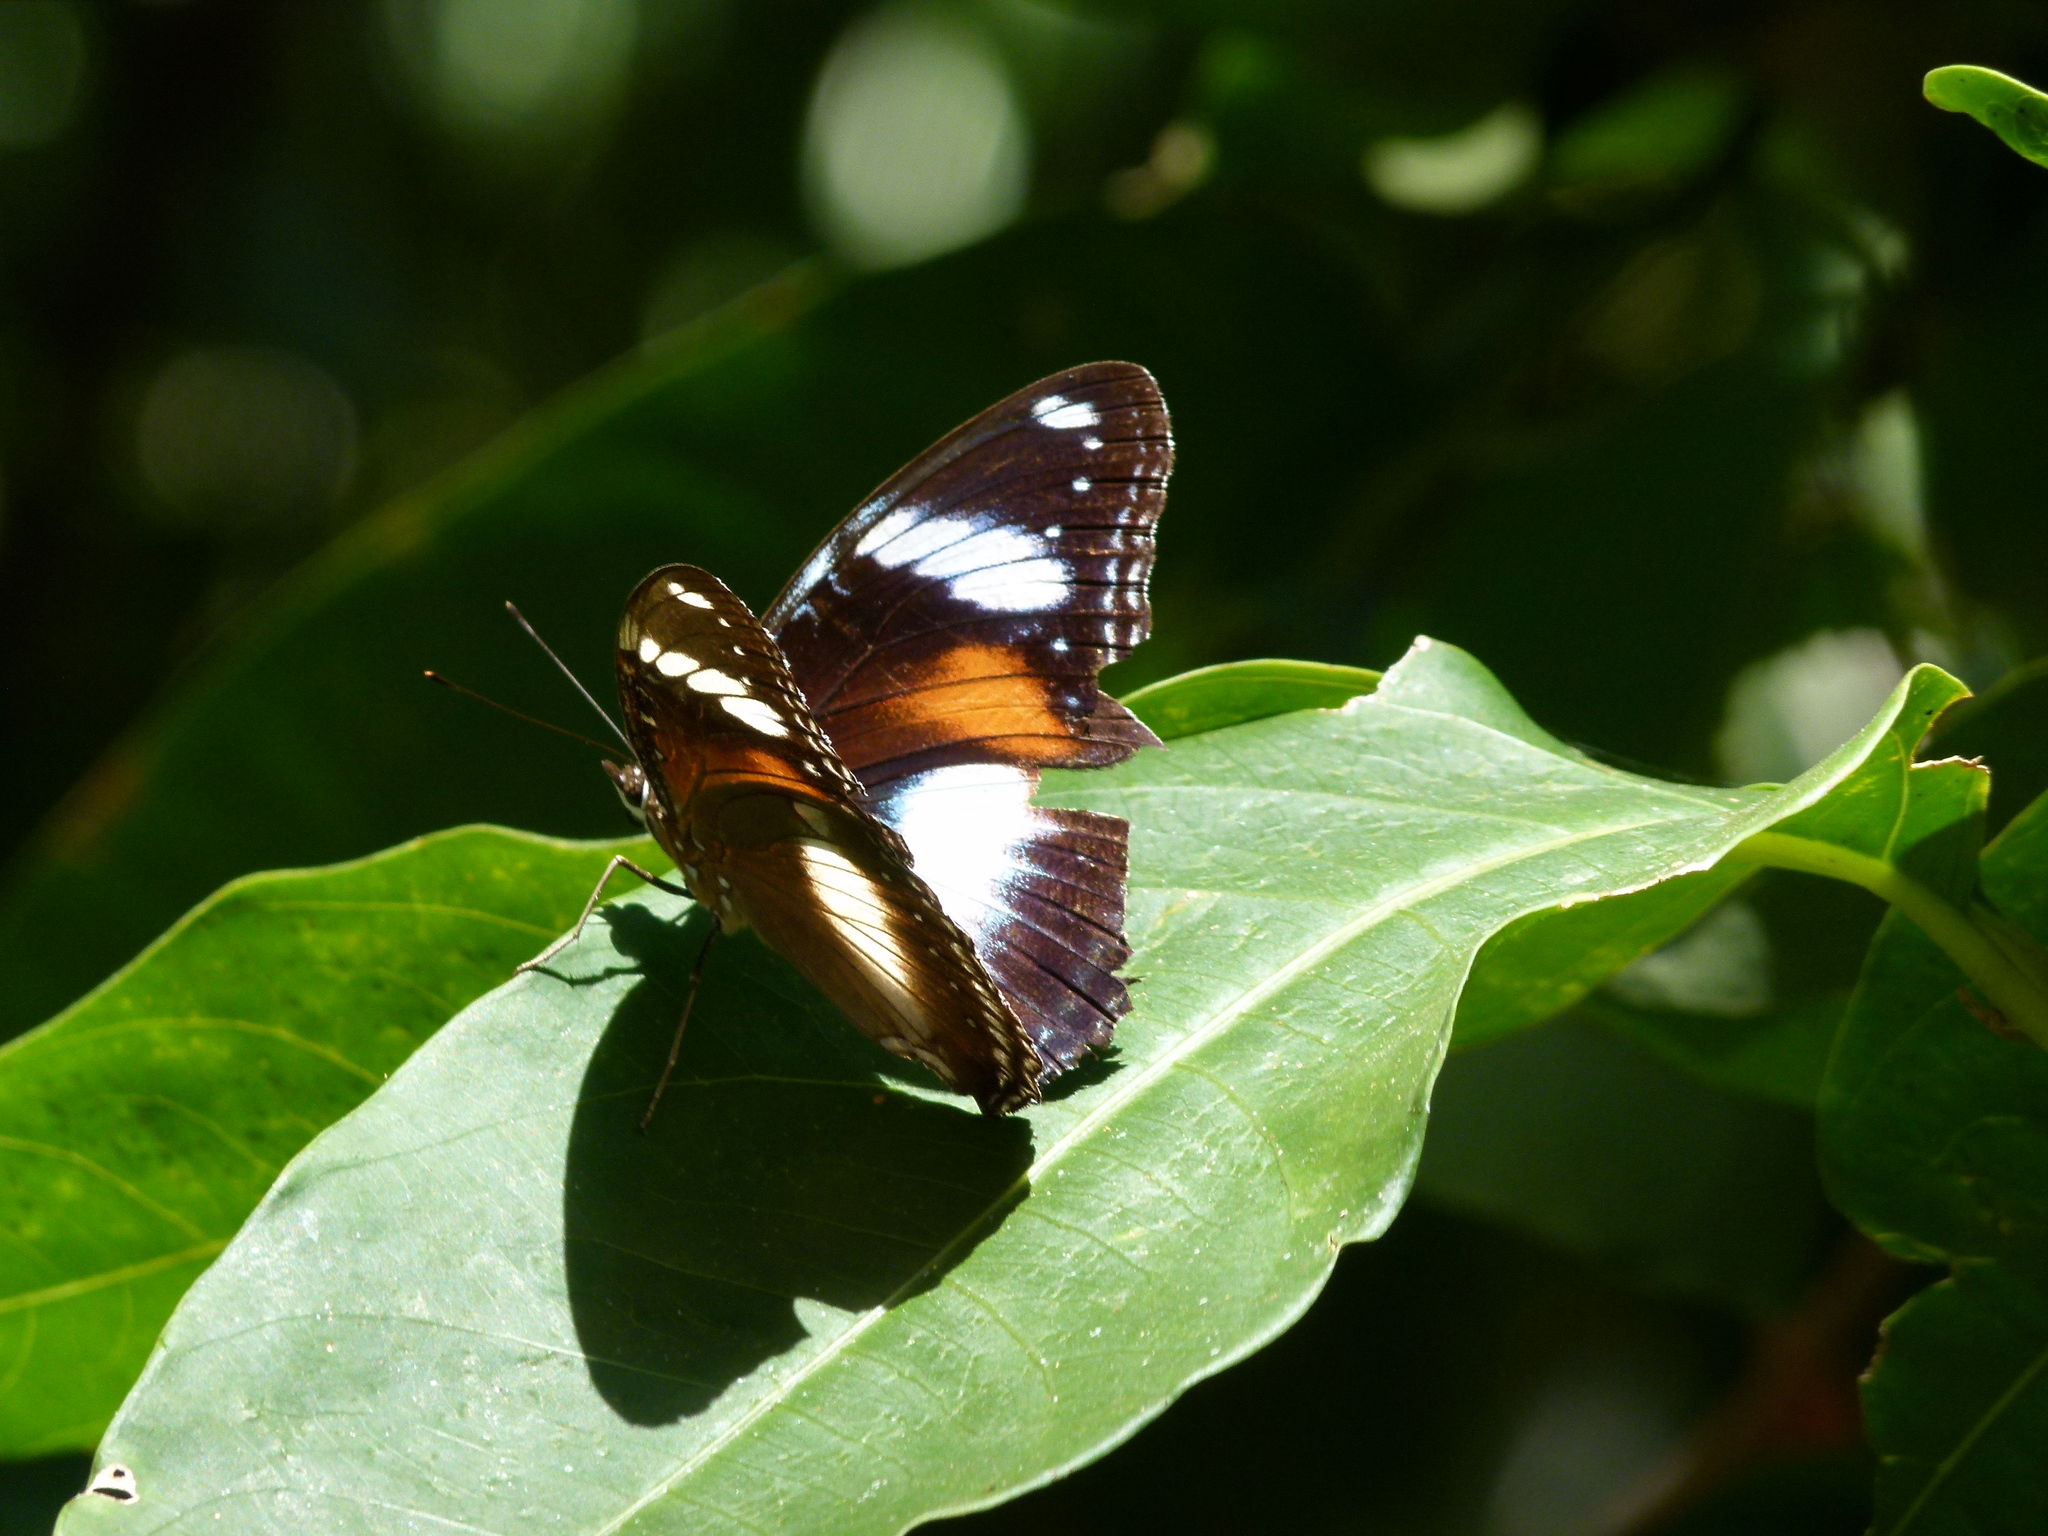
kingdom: Animalia
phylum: Arthropoda
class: Insecta
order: Lepidoptera
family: Nymphalidae
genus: Hypolimnas
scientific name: Hypolimnas bolina
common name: Great eggfly
